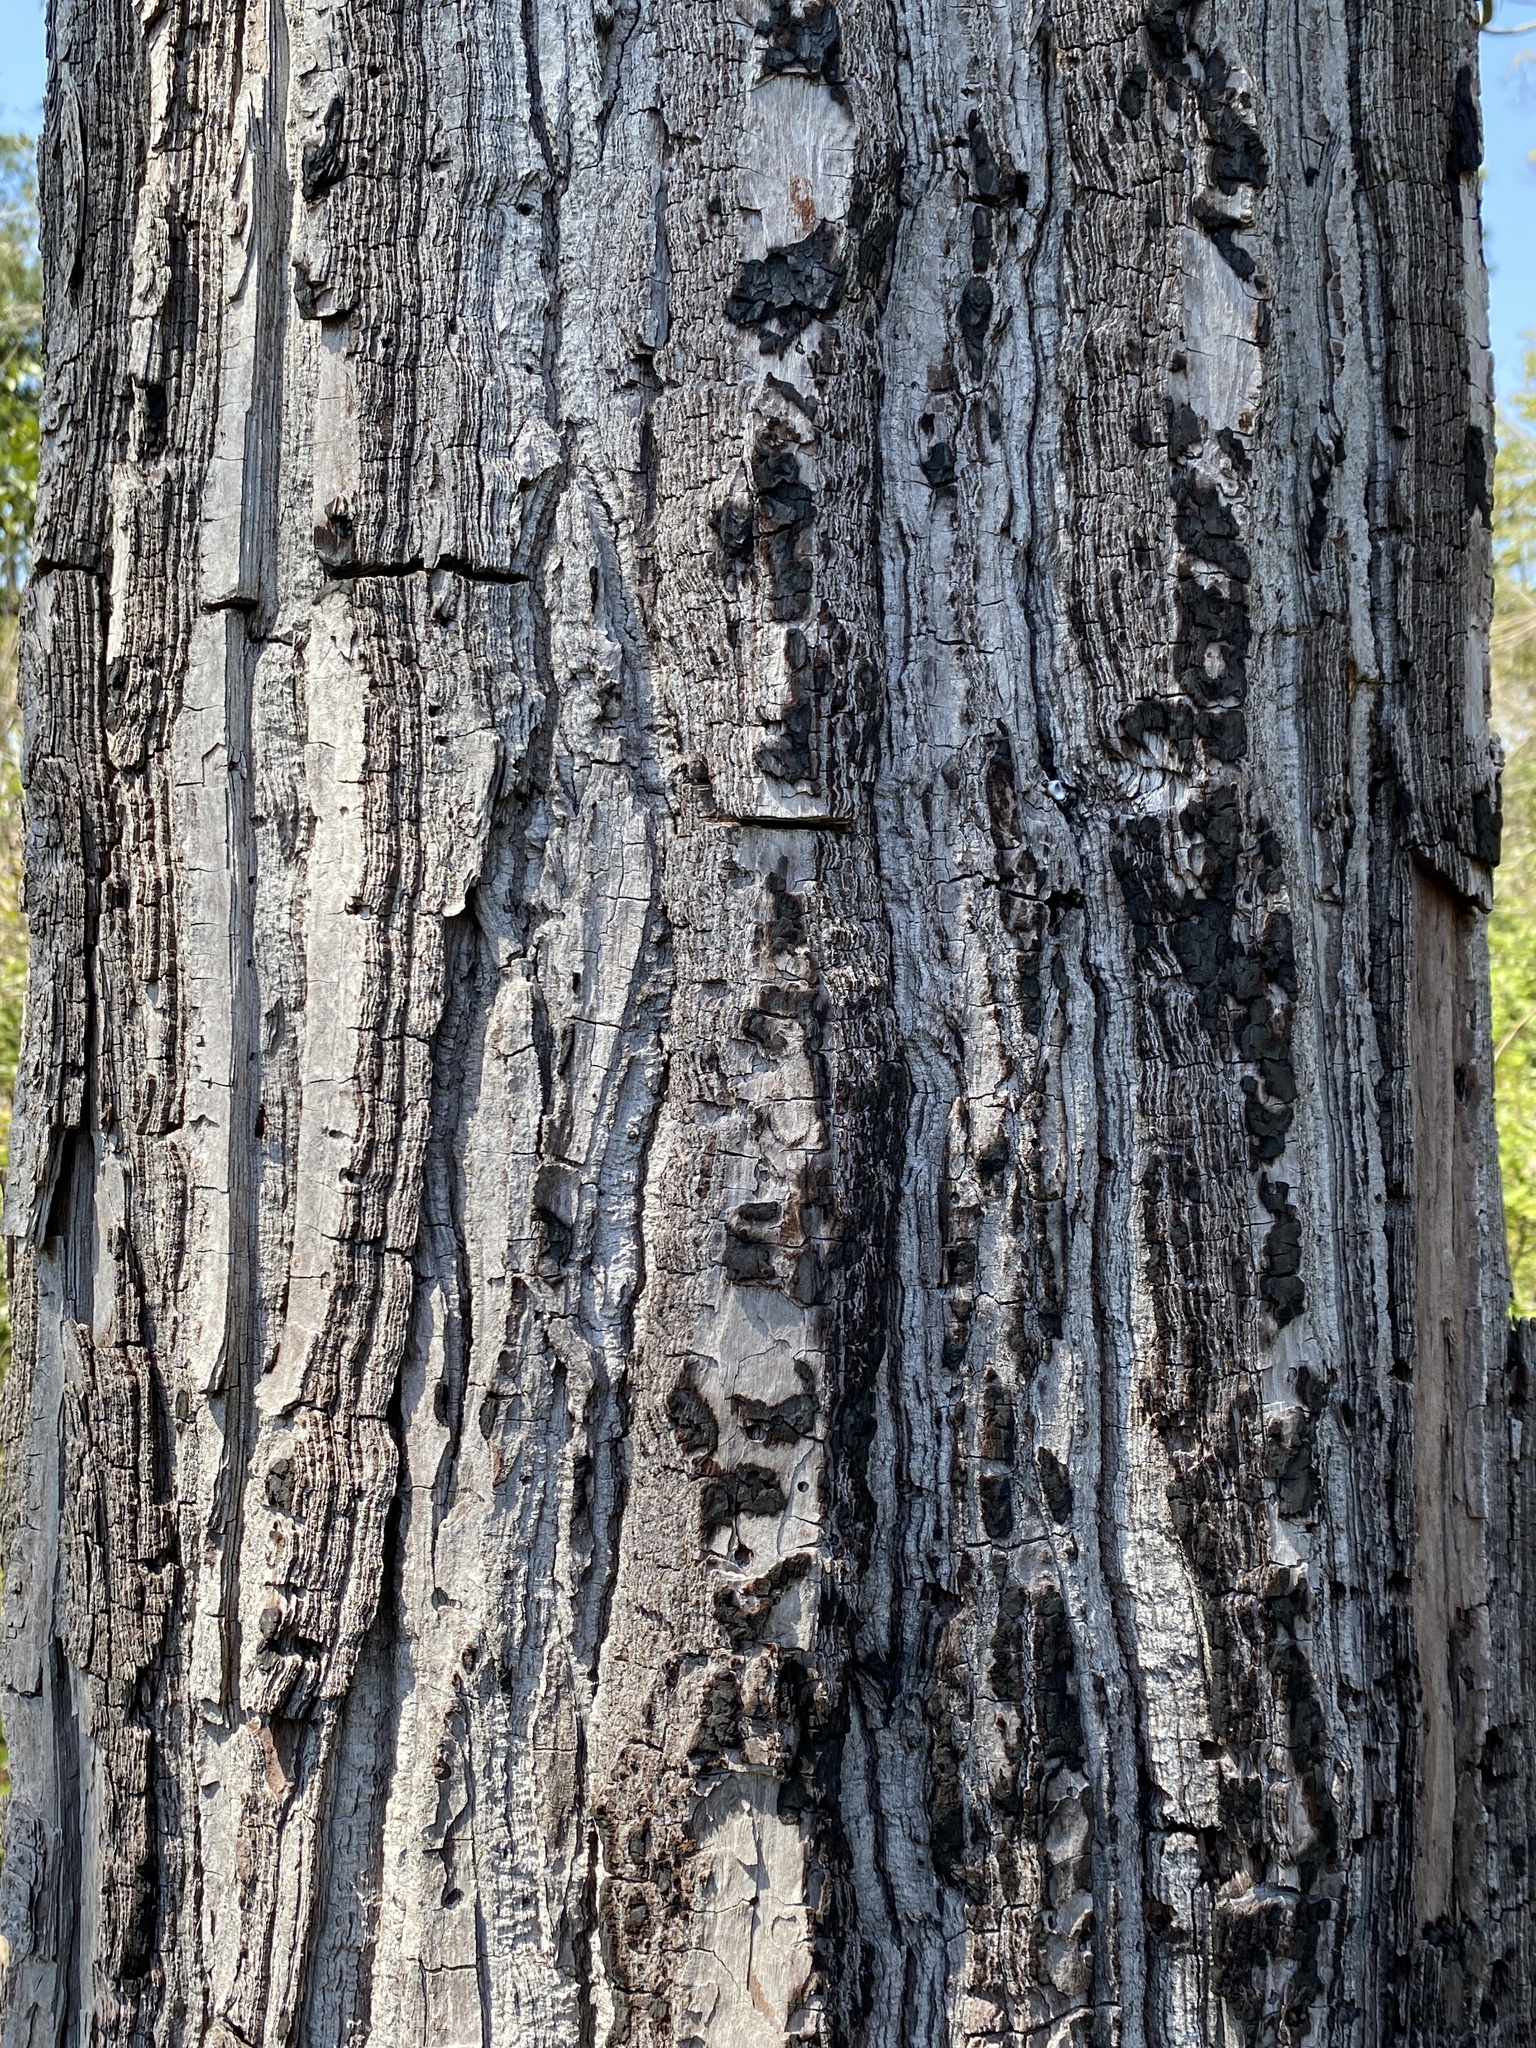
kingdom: Plantae
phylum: Tracheophyta
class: Magnoliopsida
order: Ericales
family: Theaceae
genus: Gordonia
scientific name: Gordonia lasianthus
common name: Loblolly bay
